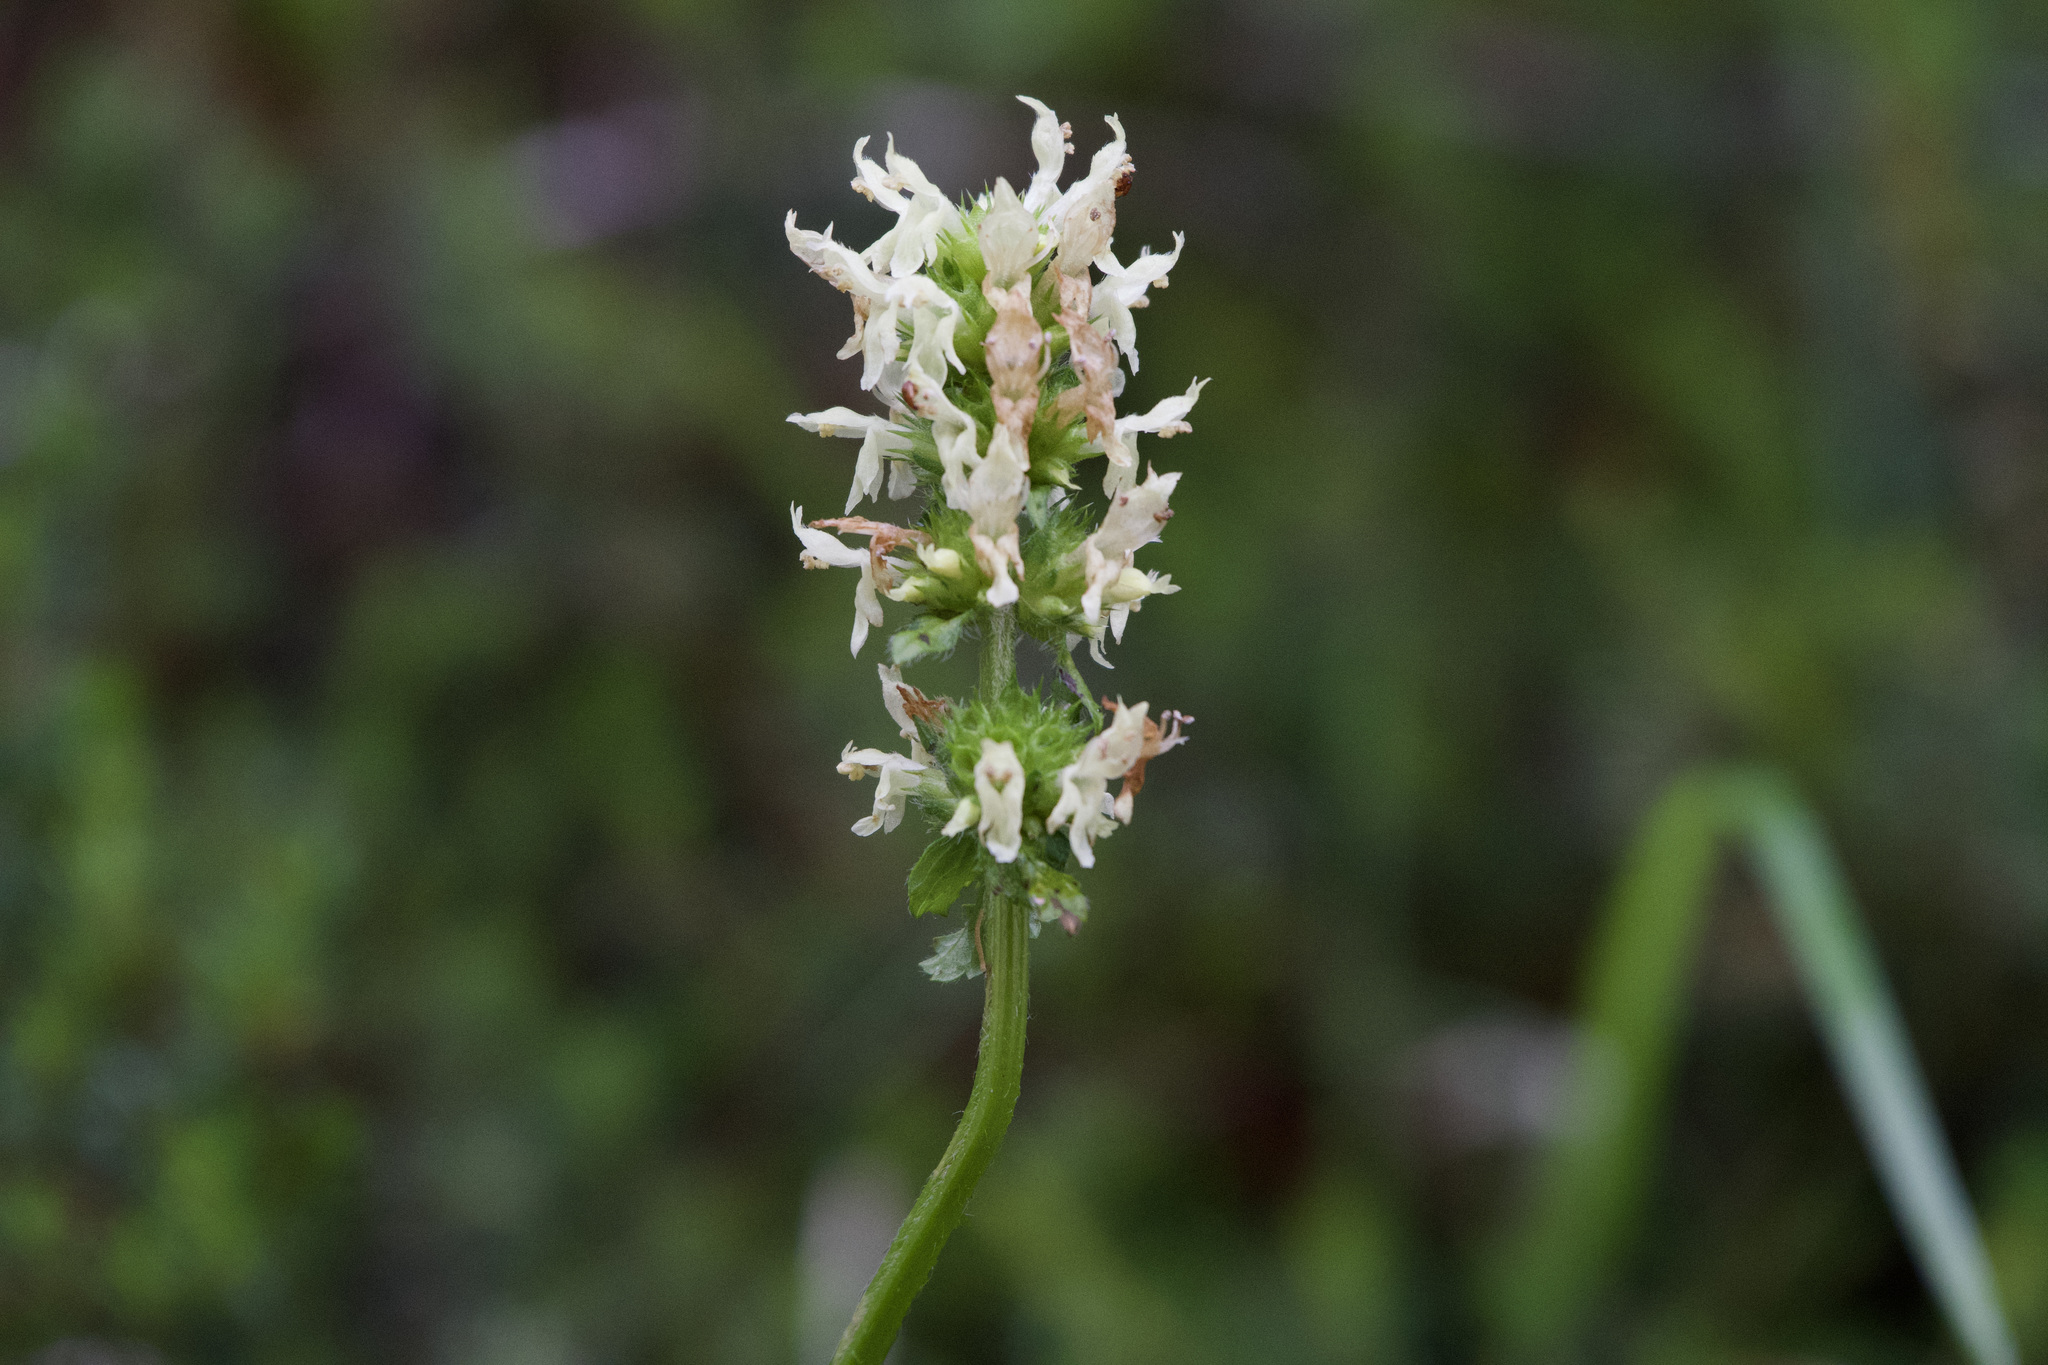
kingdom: Plantae
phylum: Tracheophyta
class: Magnoliopsida
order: Lamiales
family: Lamiaceae
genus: Betonica
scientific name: Betonica alopecuros
